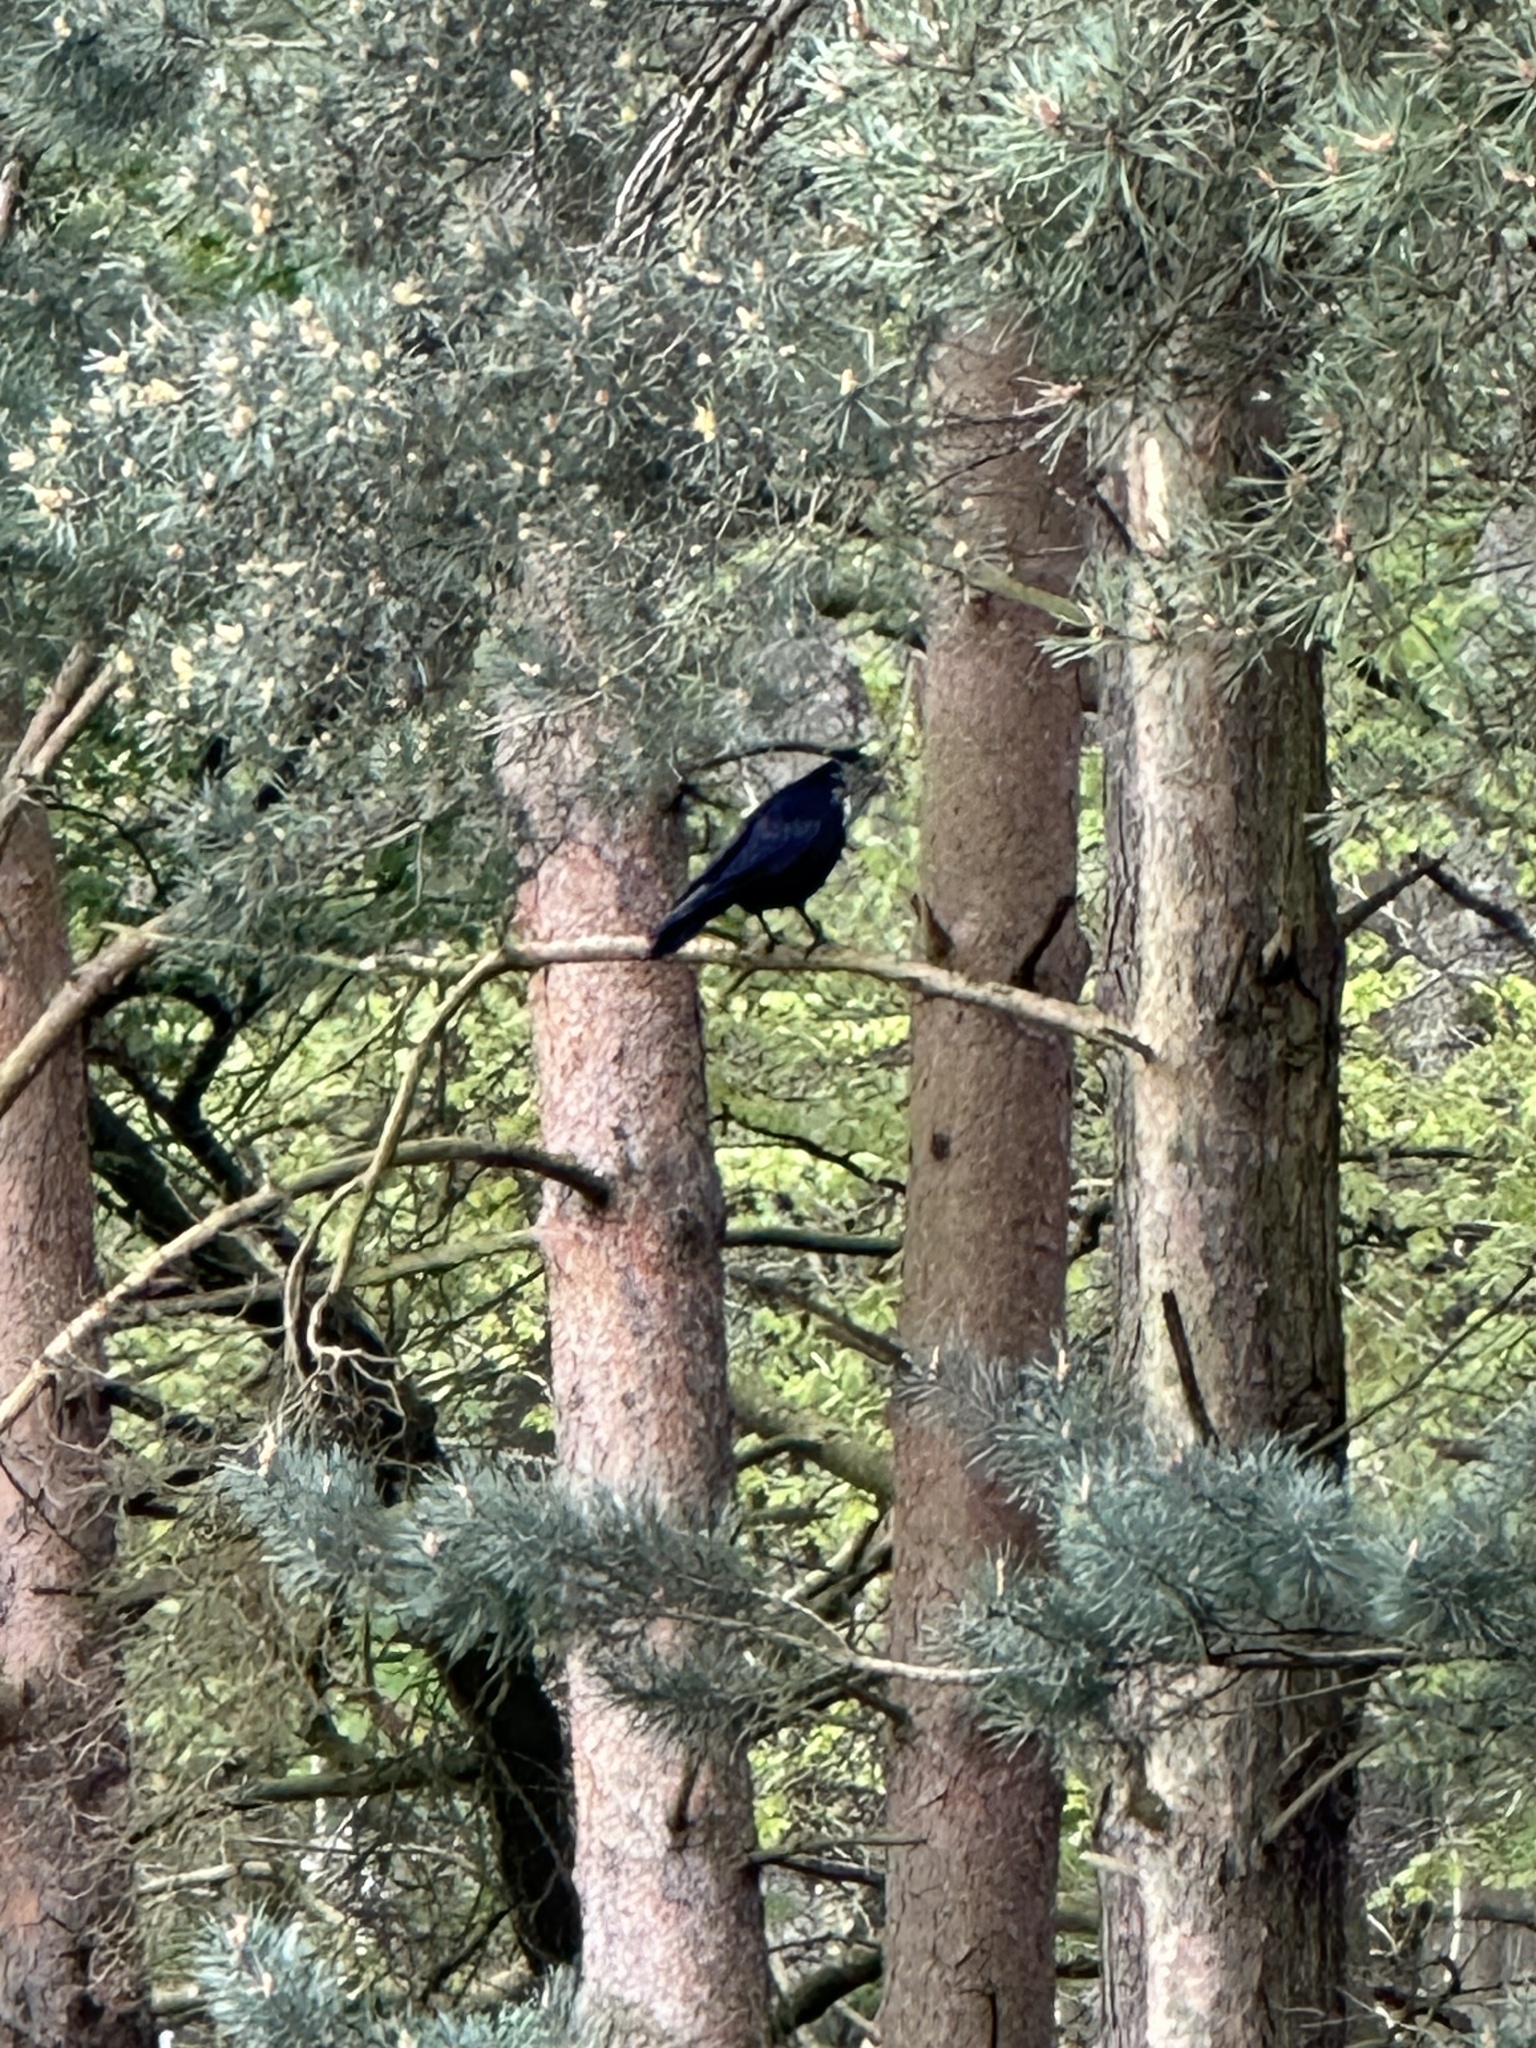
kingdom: Animalia
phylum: Chordata
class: Aves
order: Passeriformes
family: Corvidae
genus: Corvus
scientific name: Corvus corone
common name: Carrion crow
